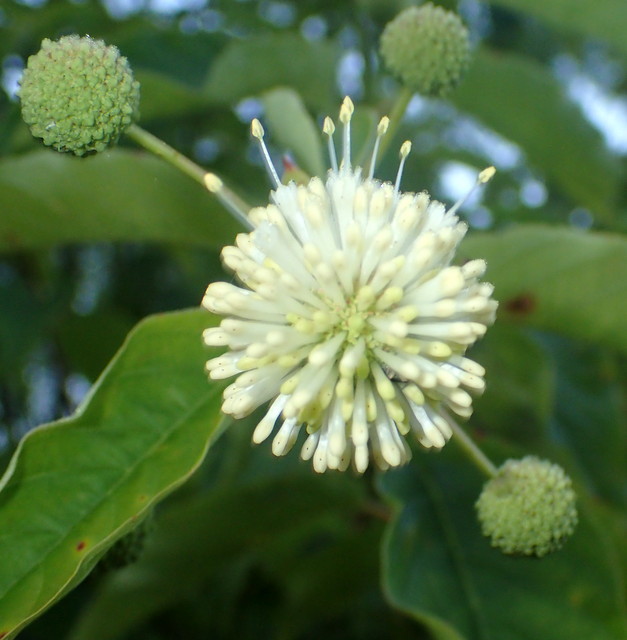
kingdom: Plantae
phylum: Tracheophyta
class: Magnoliopsida
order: Gentianales
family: Rubiaceae
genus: Cephalanthus
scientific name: Cephalanthus occidentalis
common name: Button-willow
